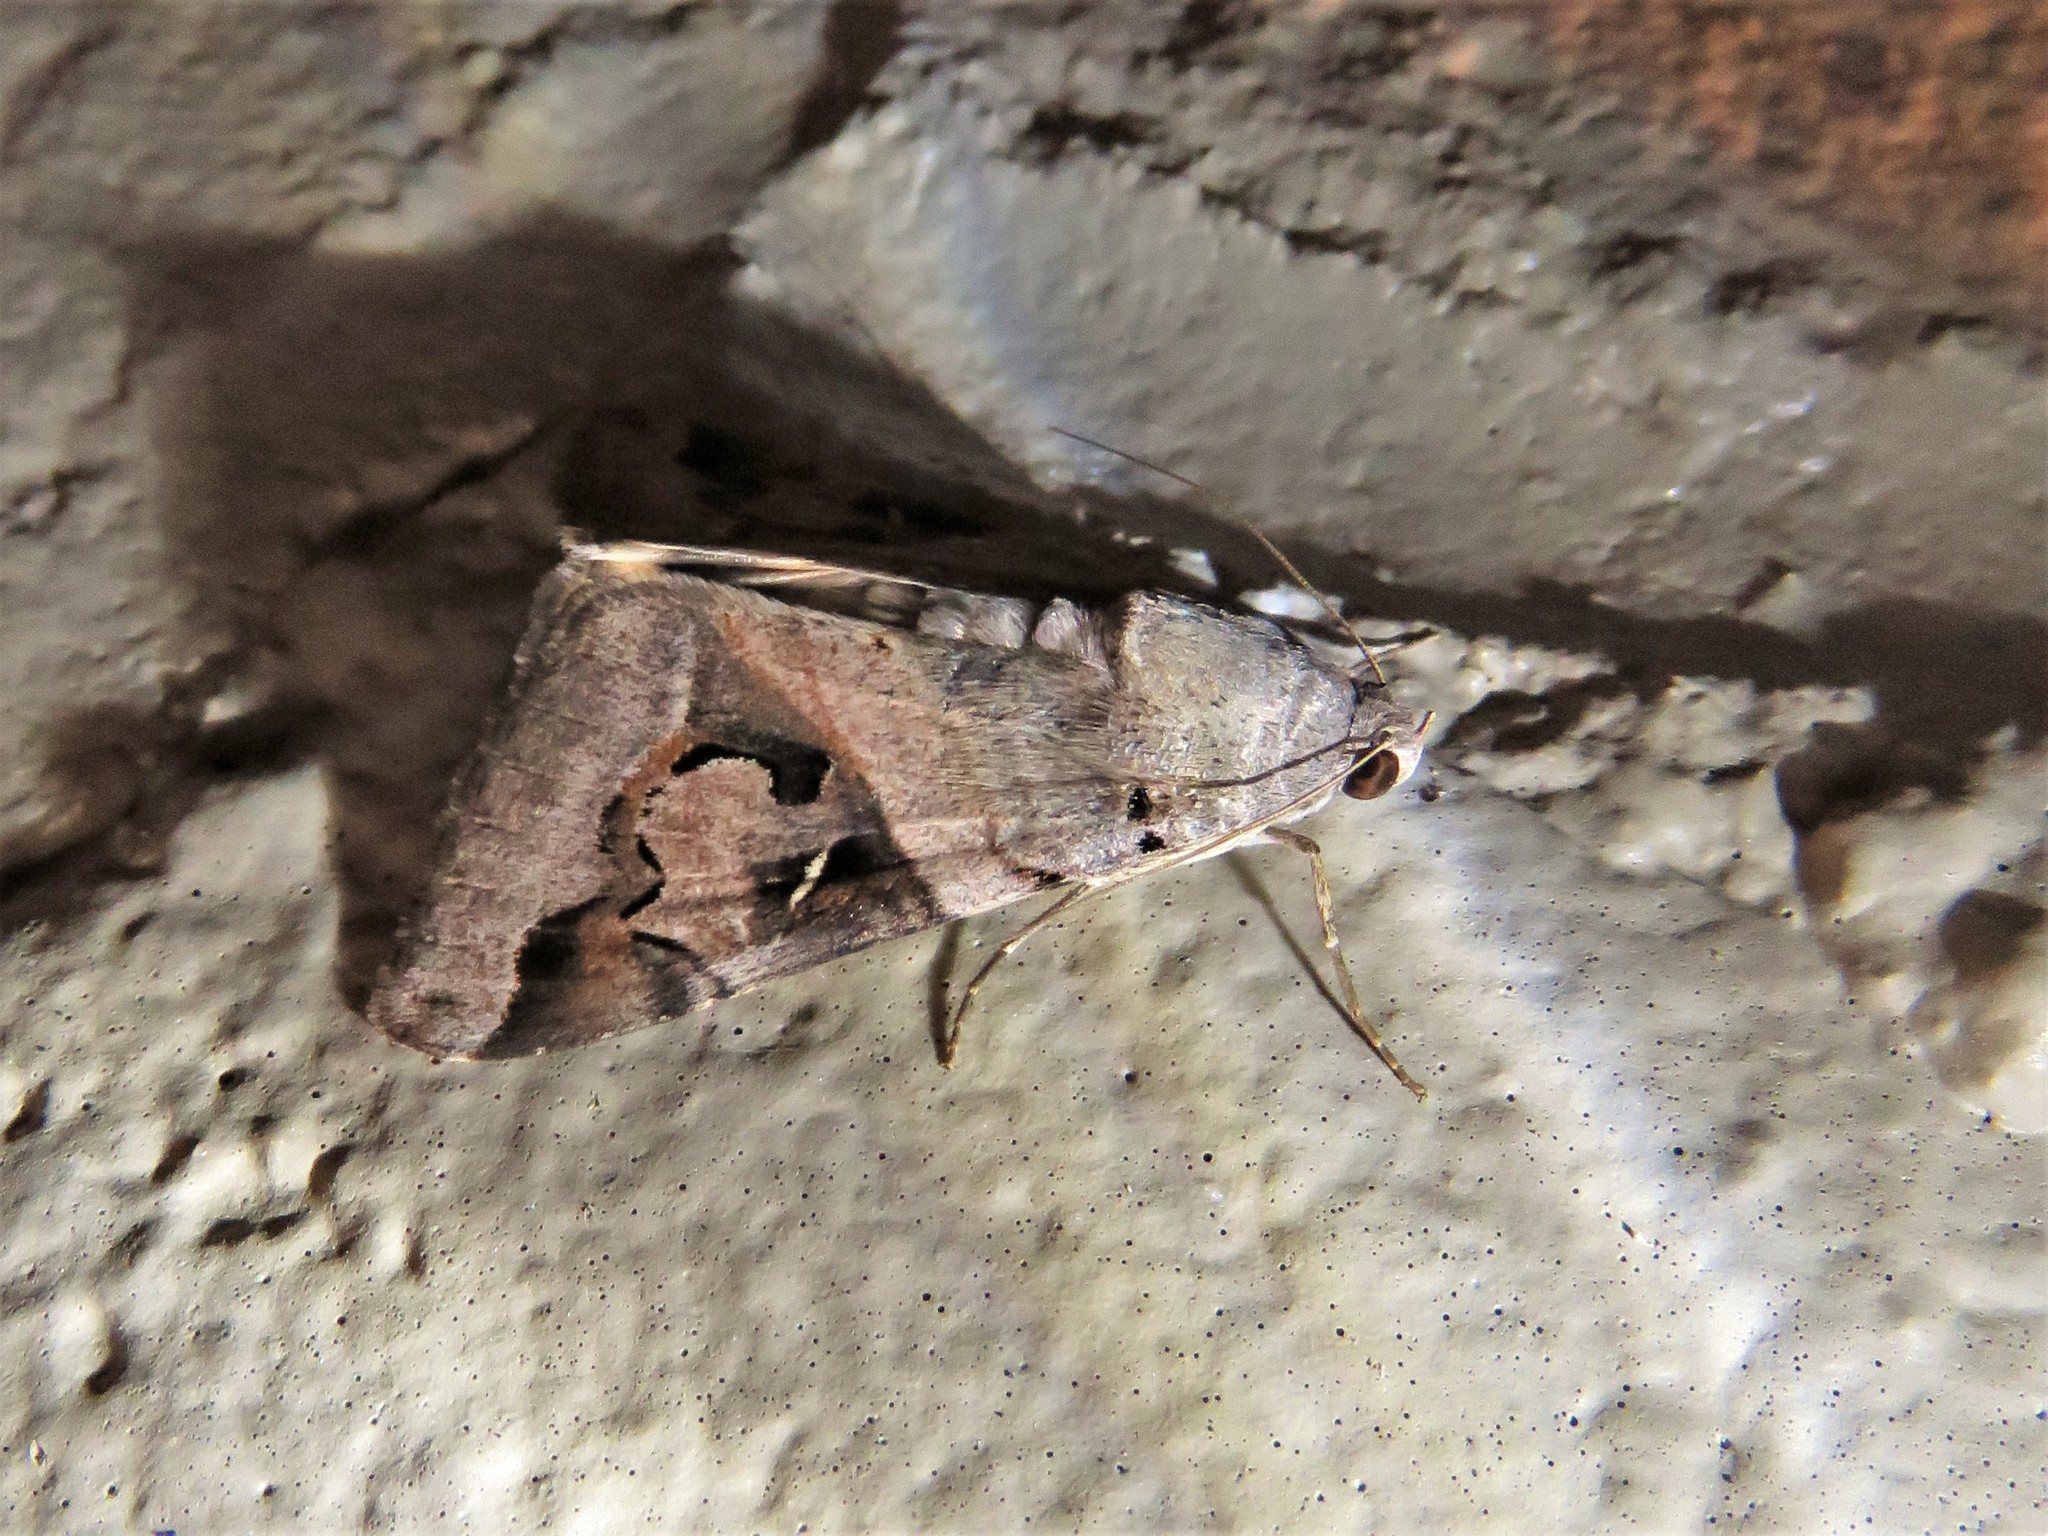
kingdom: Animalia
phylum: Arthropoda
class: Insecta
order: Lepidoptera
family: Erebidae
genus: Melipotis
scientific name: Melipotis indomita
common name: Moth
